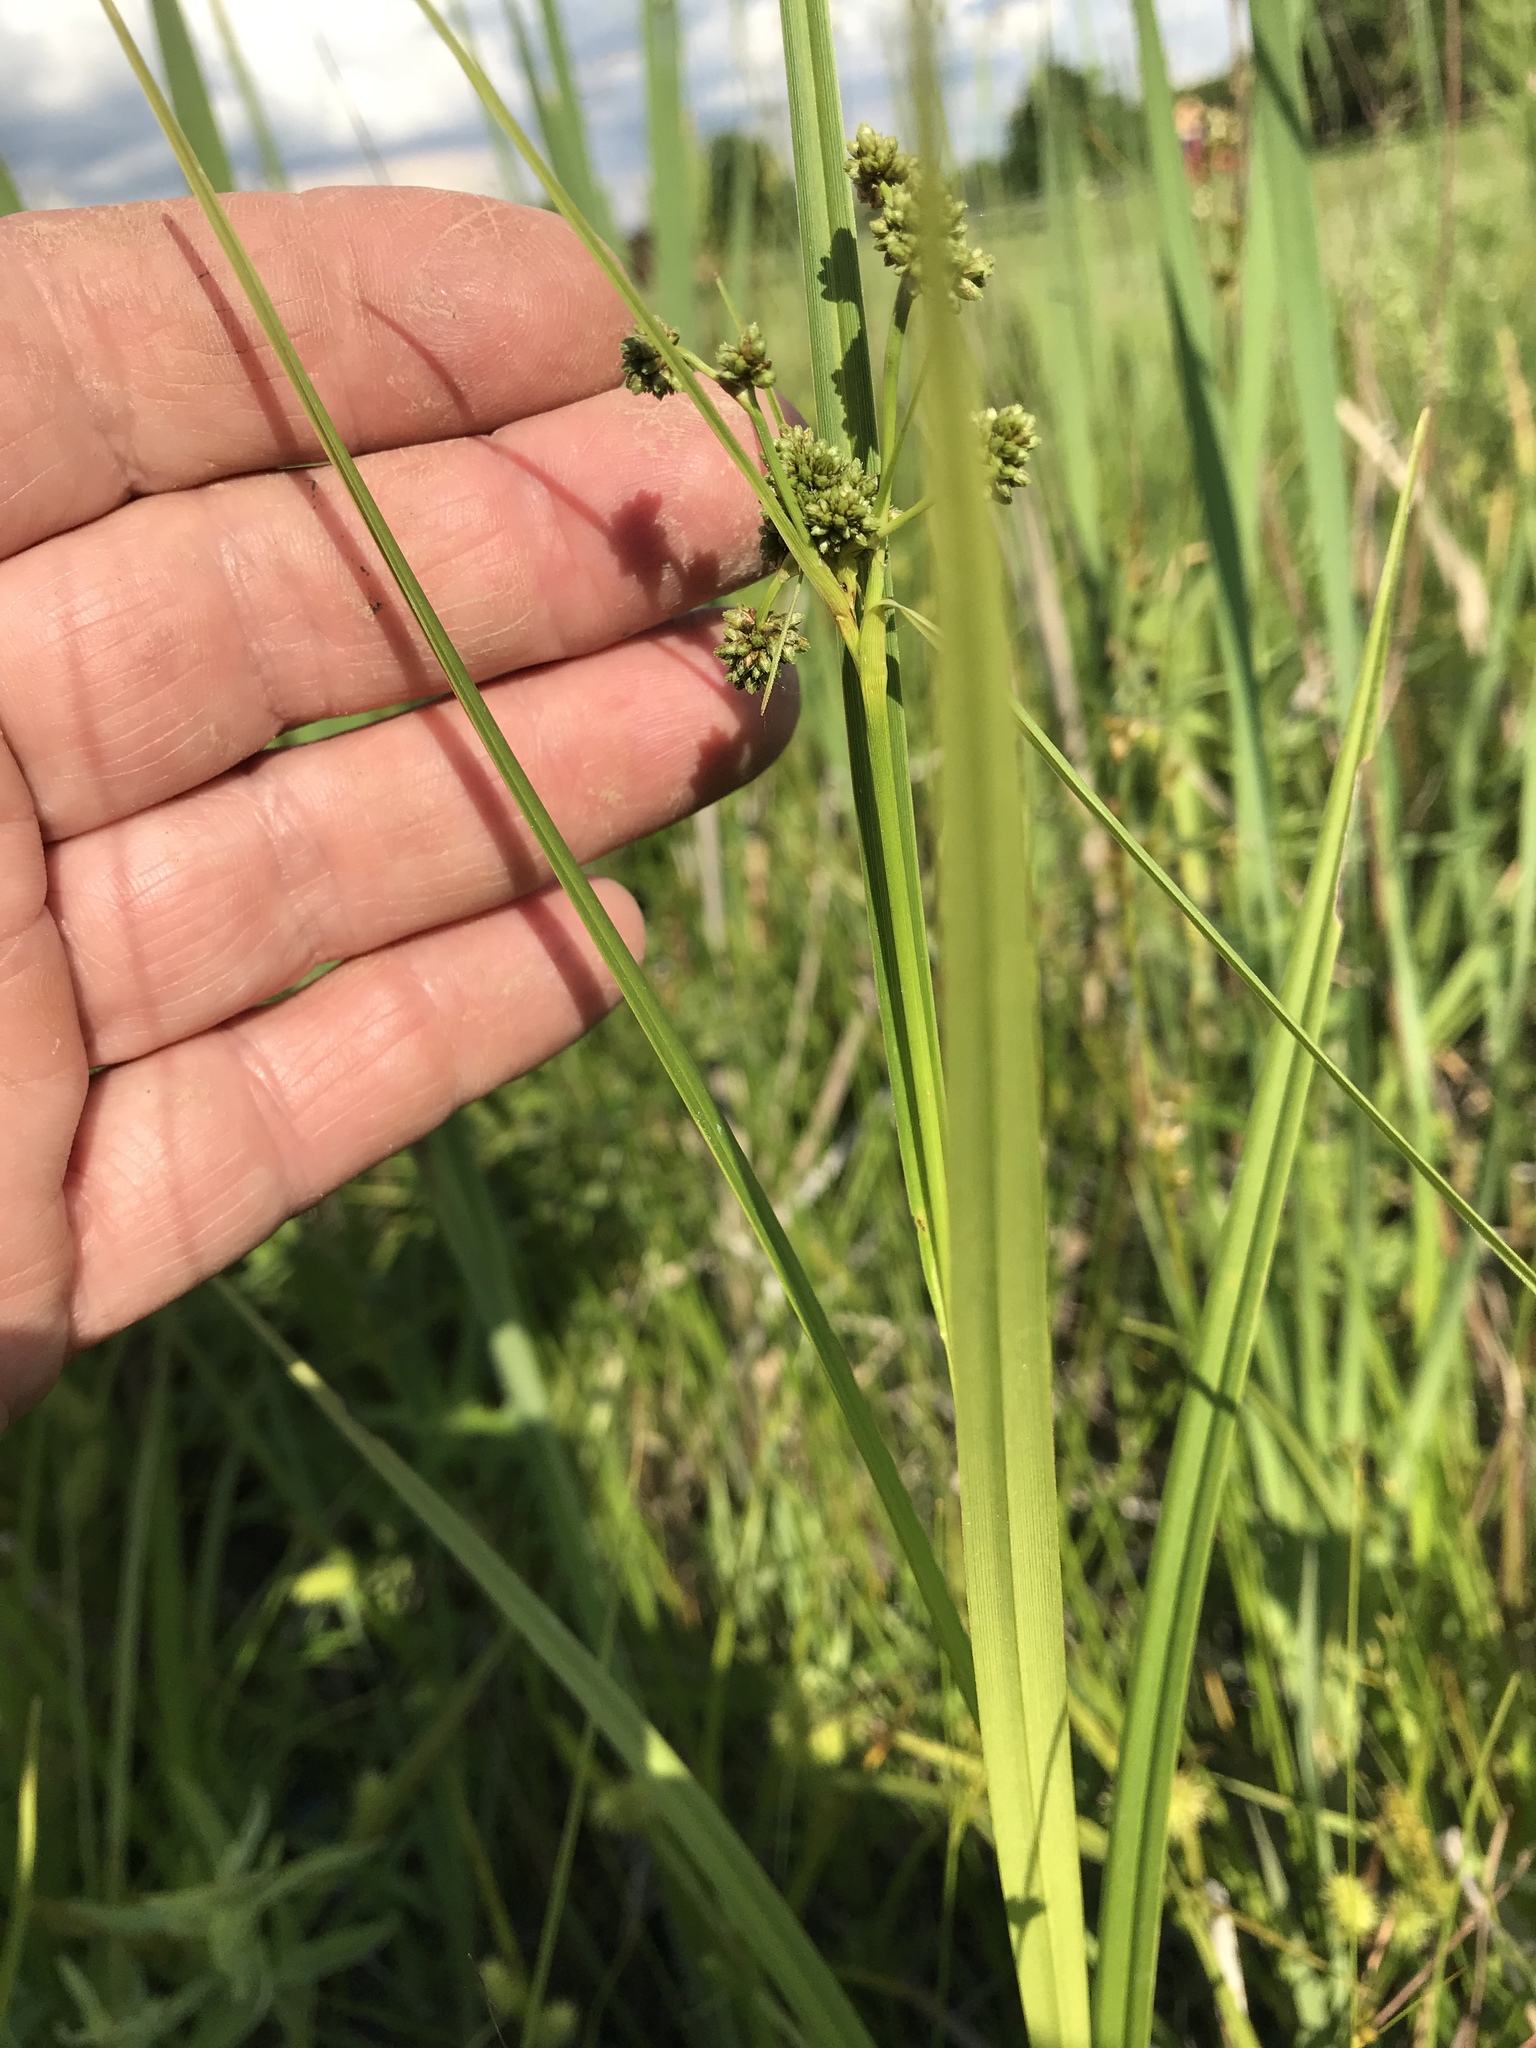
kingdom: Plantae
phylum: Tracheophyta
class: Liliopsida
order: Poales
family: Cyperaceae
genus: Scirpus
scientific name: Scirpus atrovirens
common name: Black bulrush
